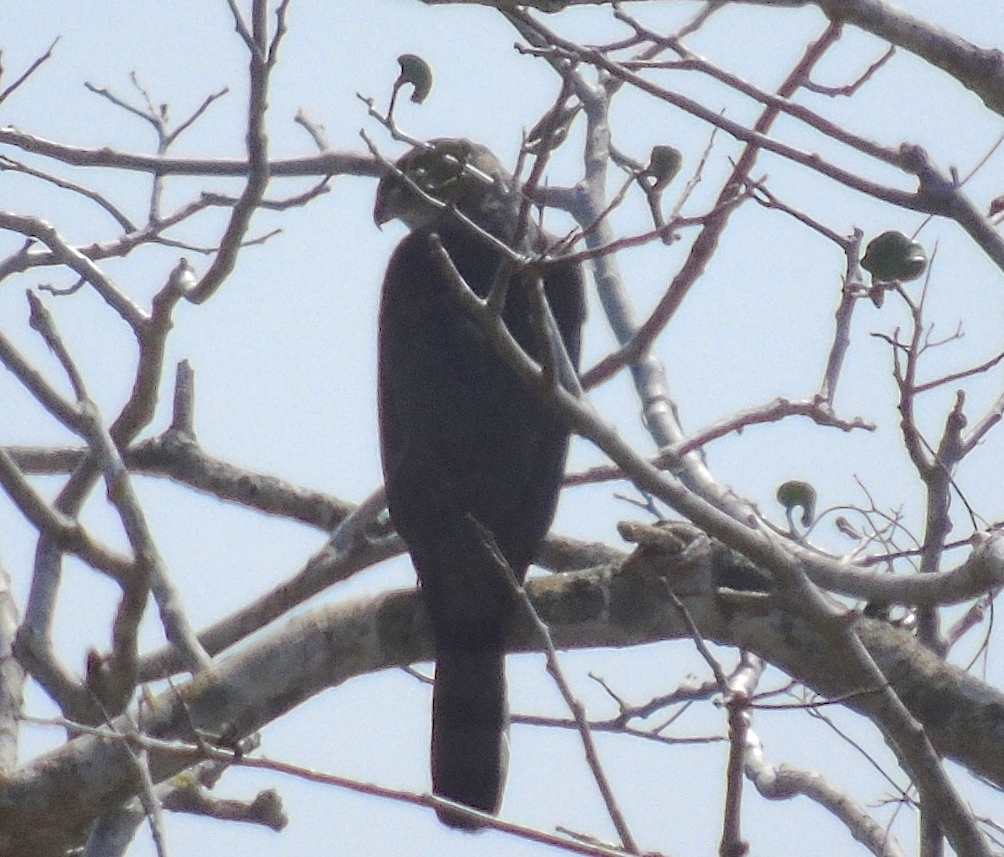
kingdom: Animalia
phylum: Chordata
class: Aves
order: Accipitriformes
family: Accipitridae
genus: Accipiter
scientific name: Accipiter cooperii
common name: Cooper's hawk
